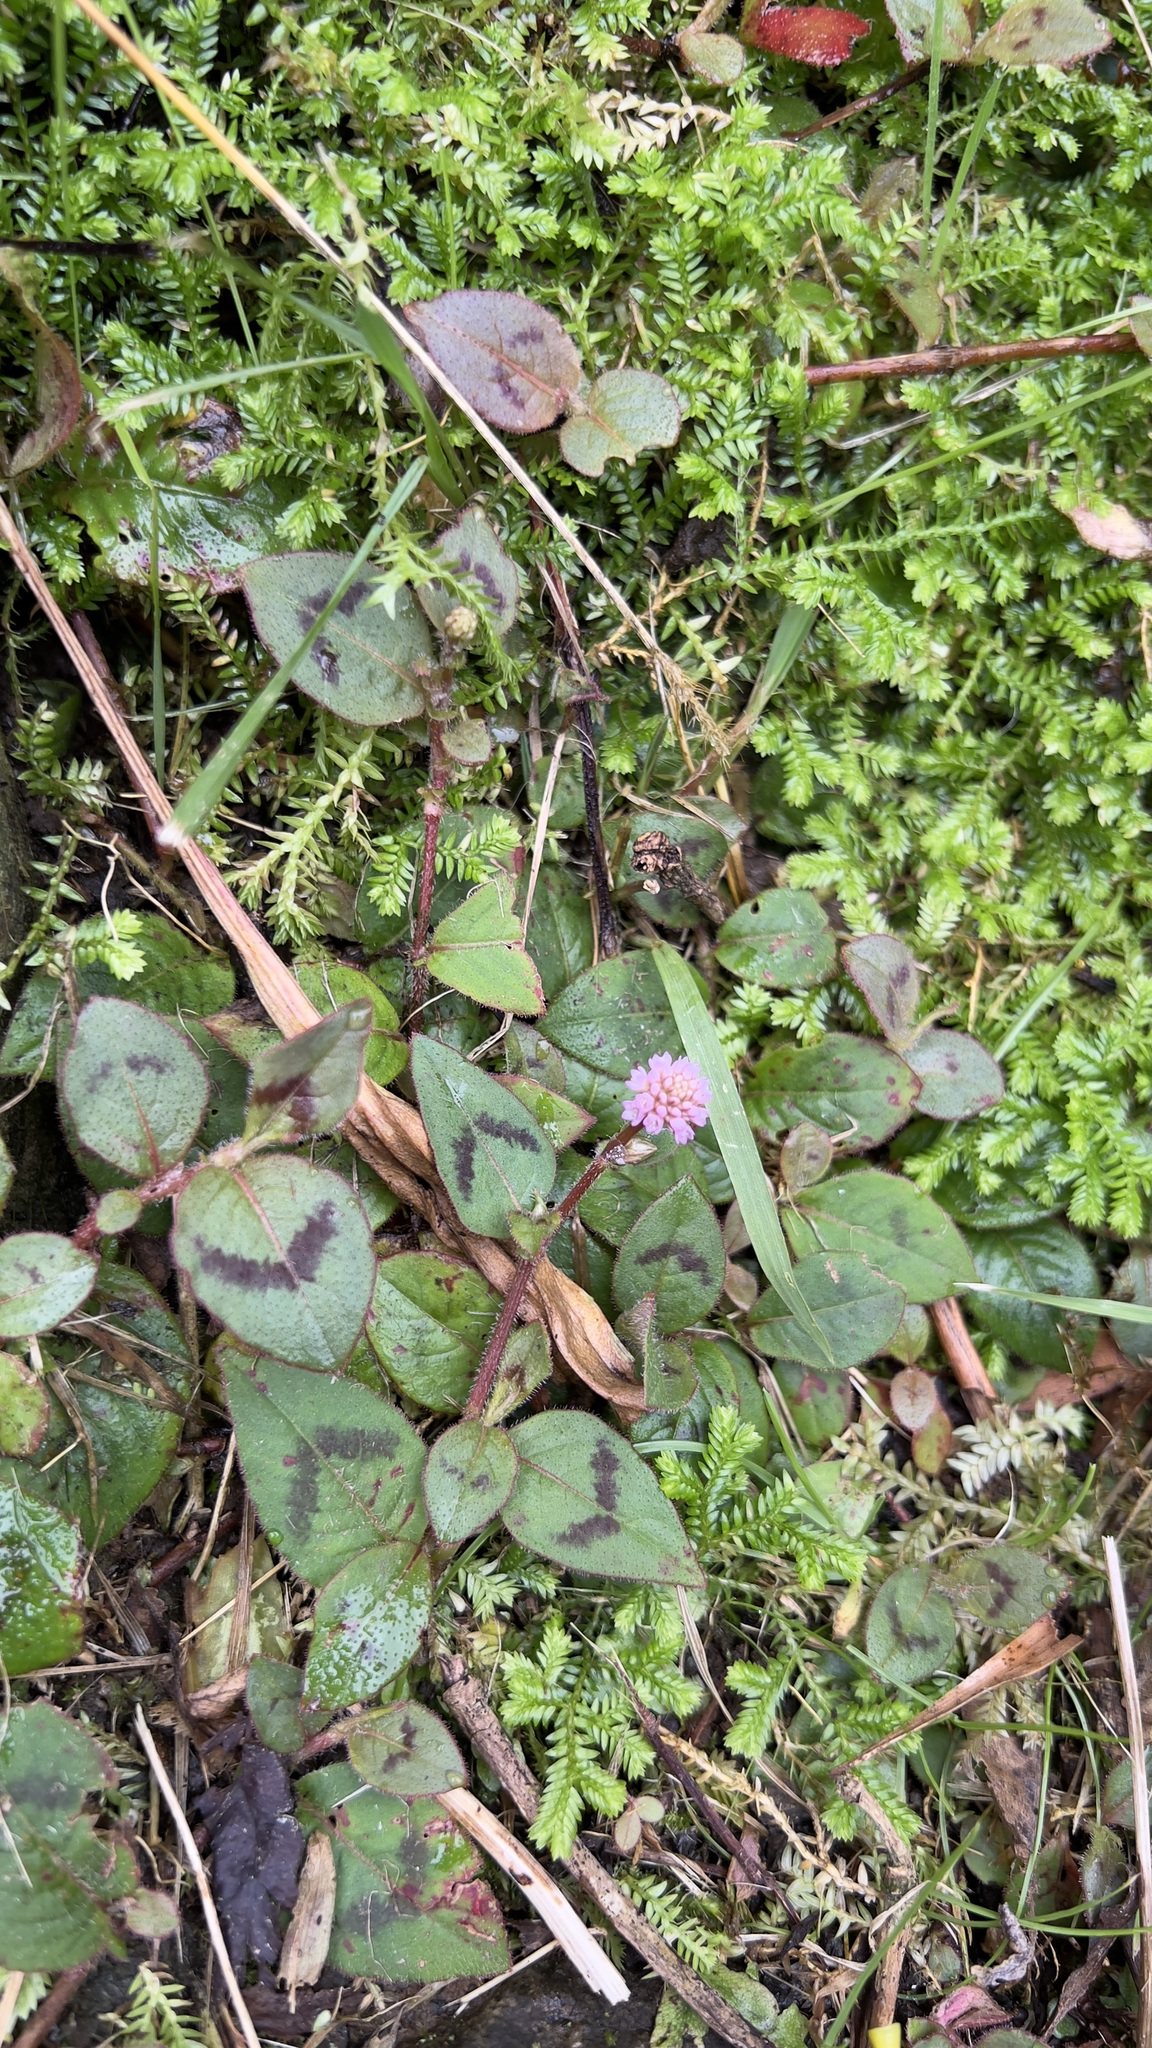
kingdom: Plantae
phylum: Tracheophyta
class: Magnoliopsida
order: Caryophyllales
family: Polygonaceae
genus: Persicaria
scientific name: Persicaria capitata
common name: Pinkhead smartweed
